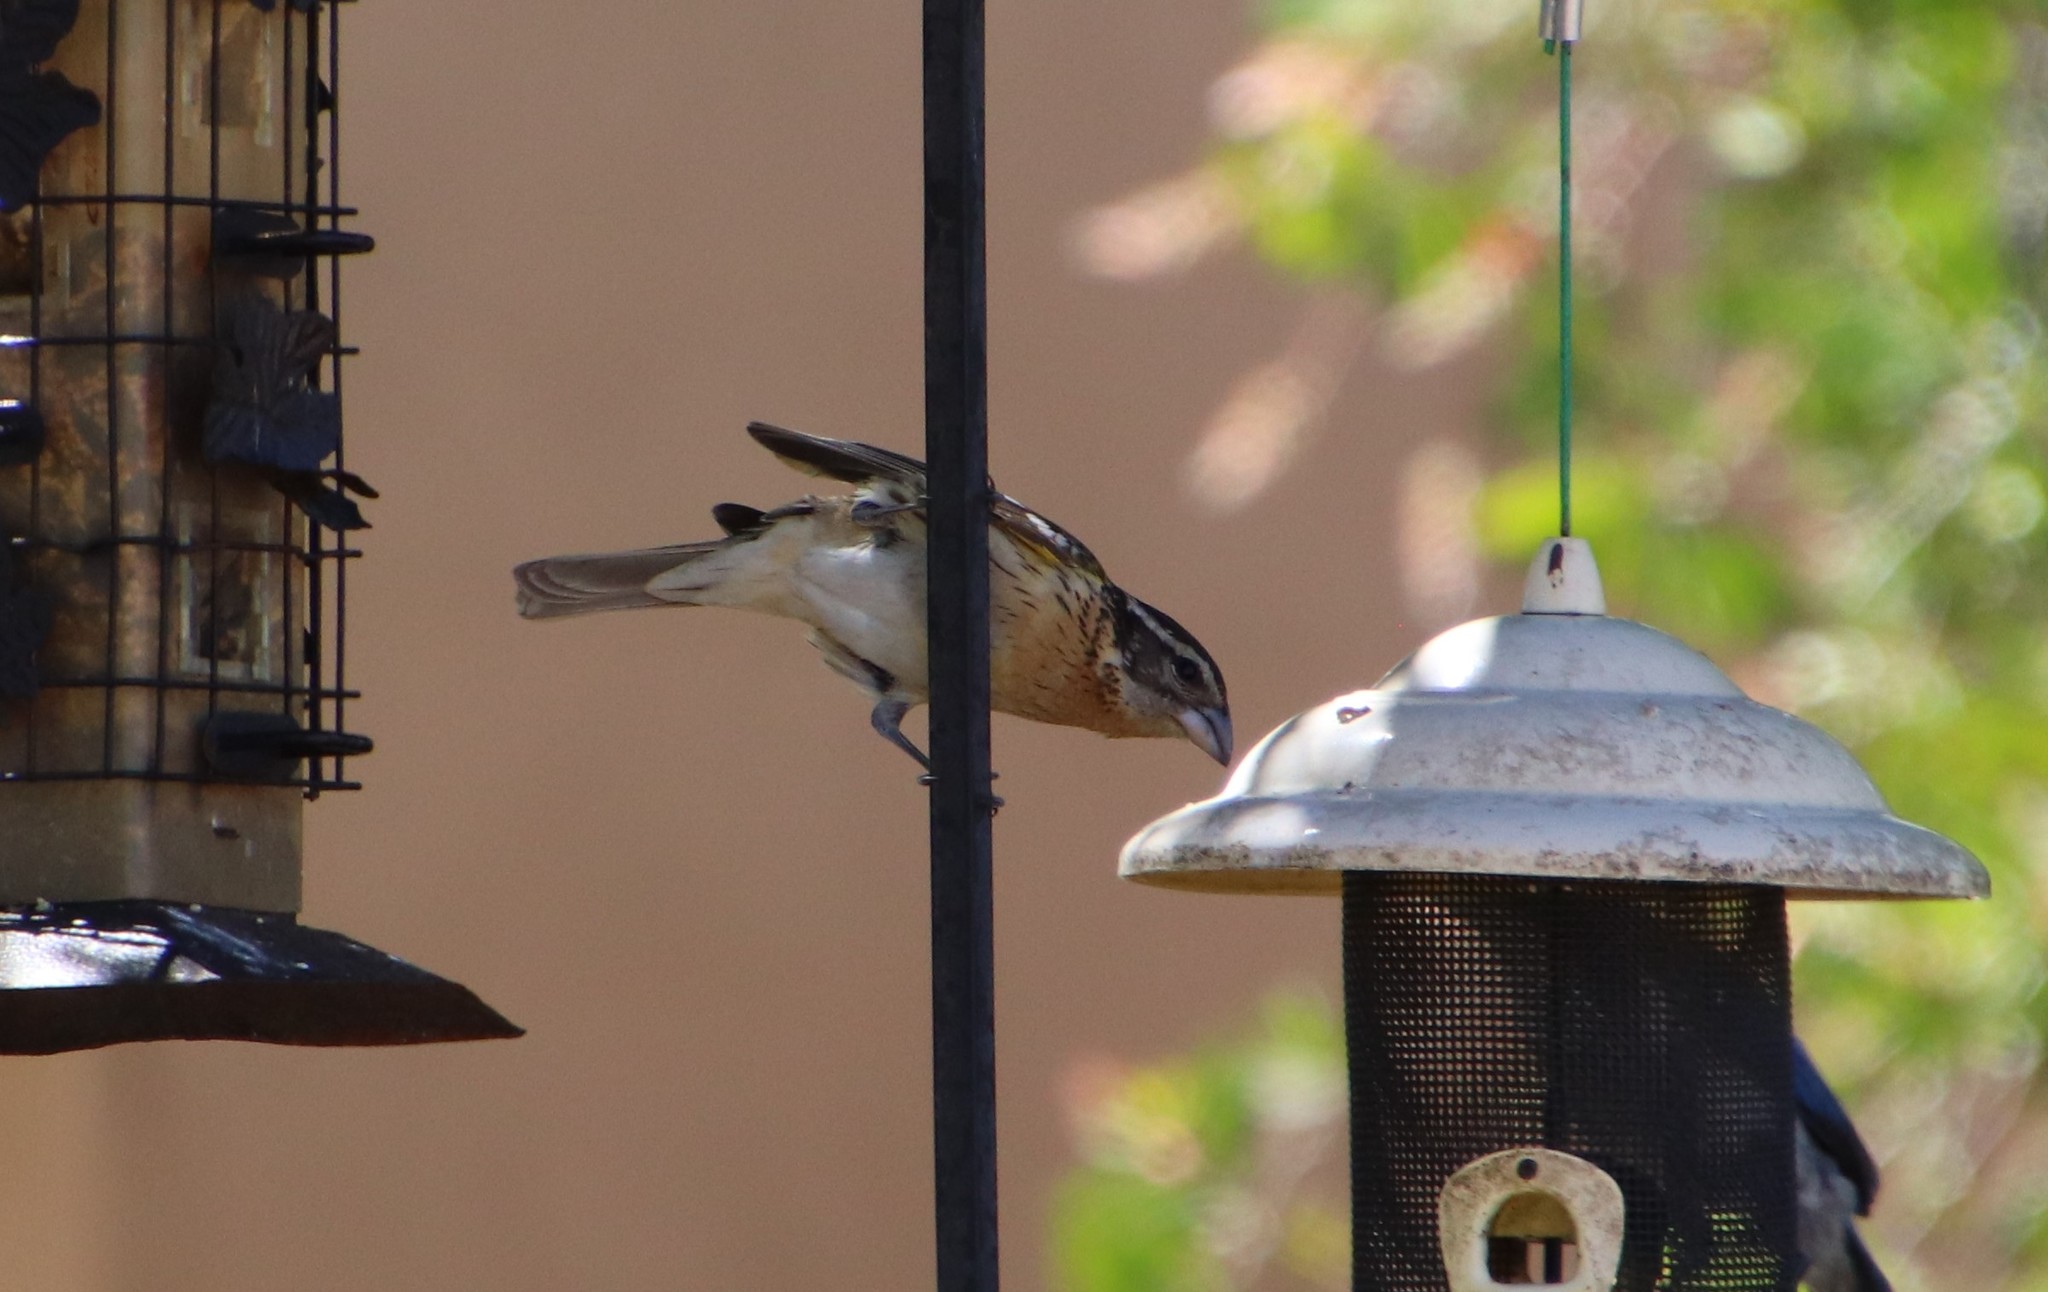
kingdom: Animalia
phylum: Chordata
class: Aves
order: Passeriformes
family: Cardinalidae
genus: Pheucticus
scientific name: Pheucticus melanocephalus
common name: Black-headed grosbeak
